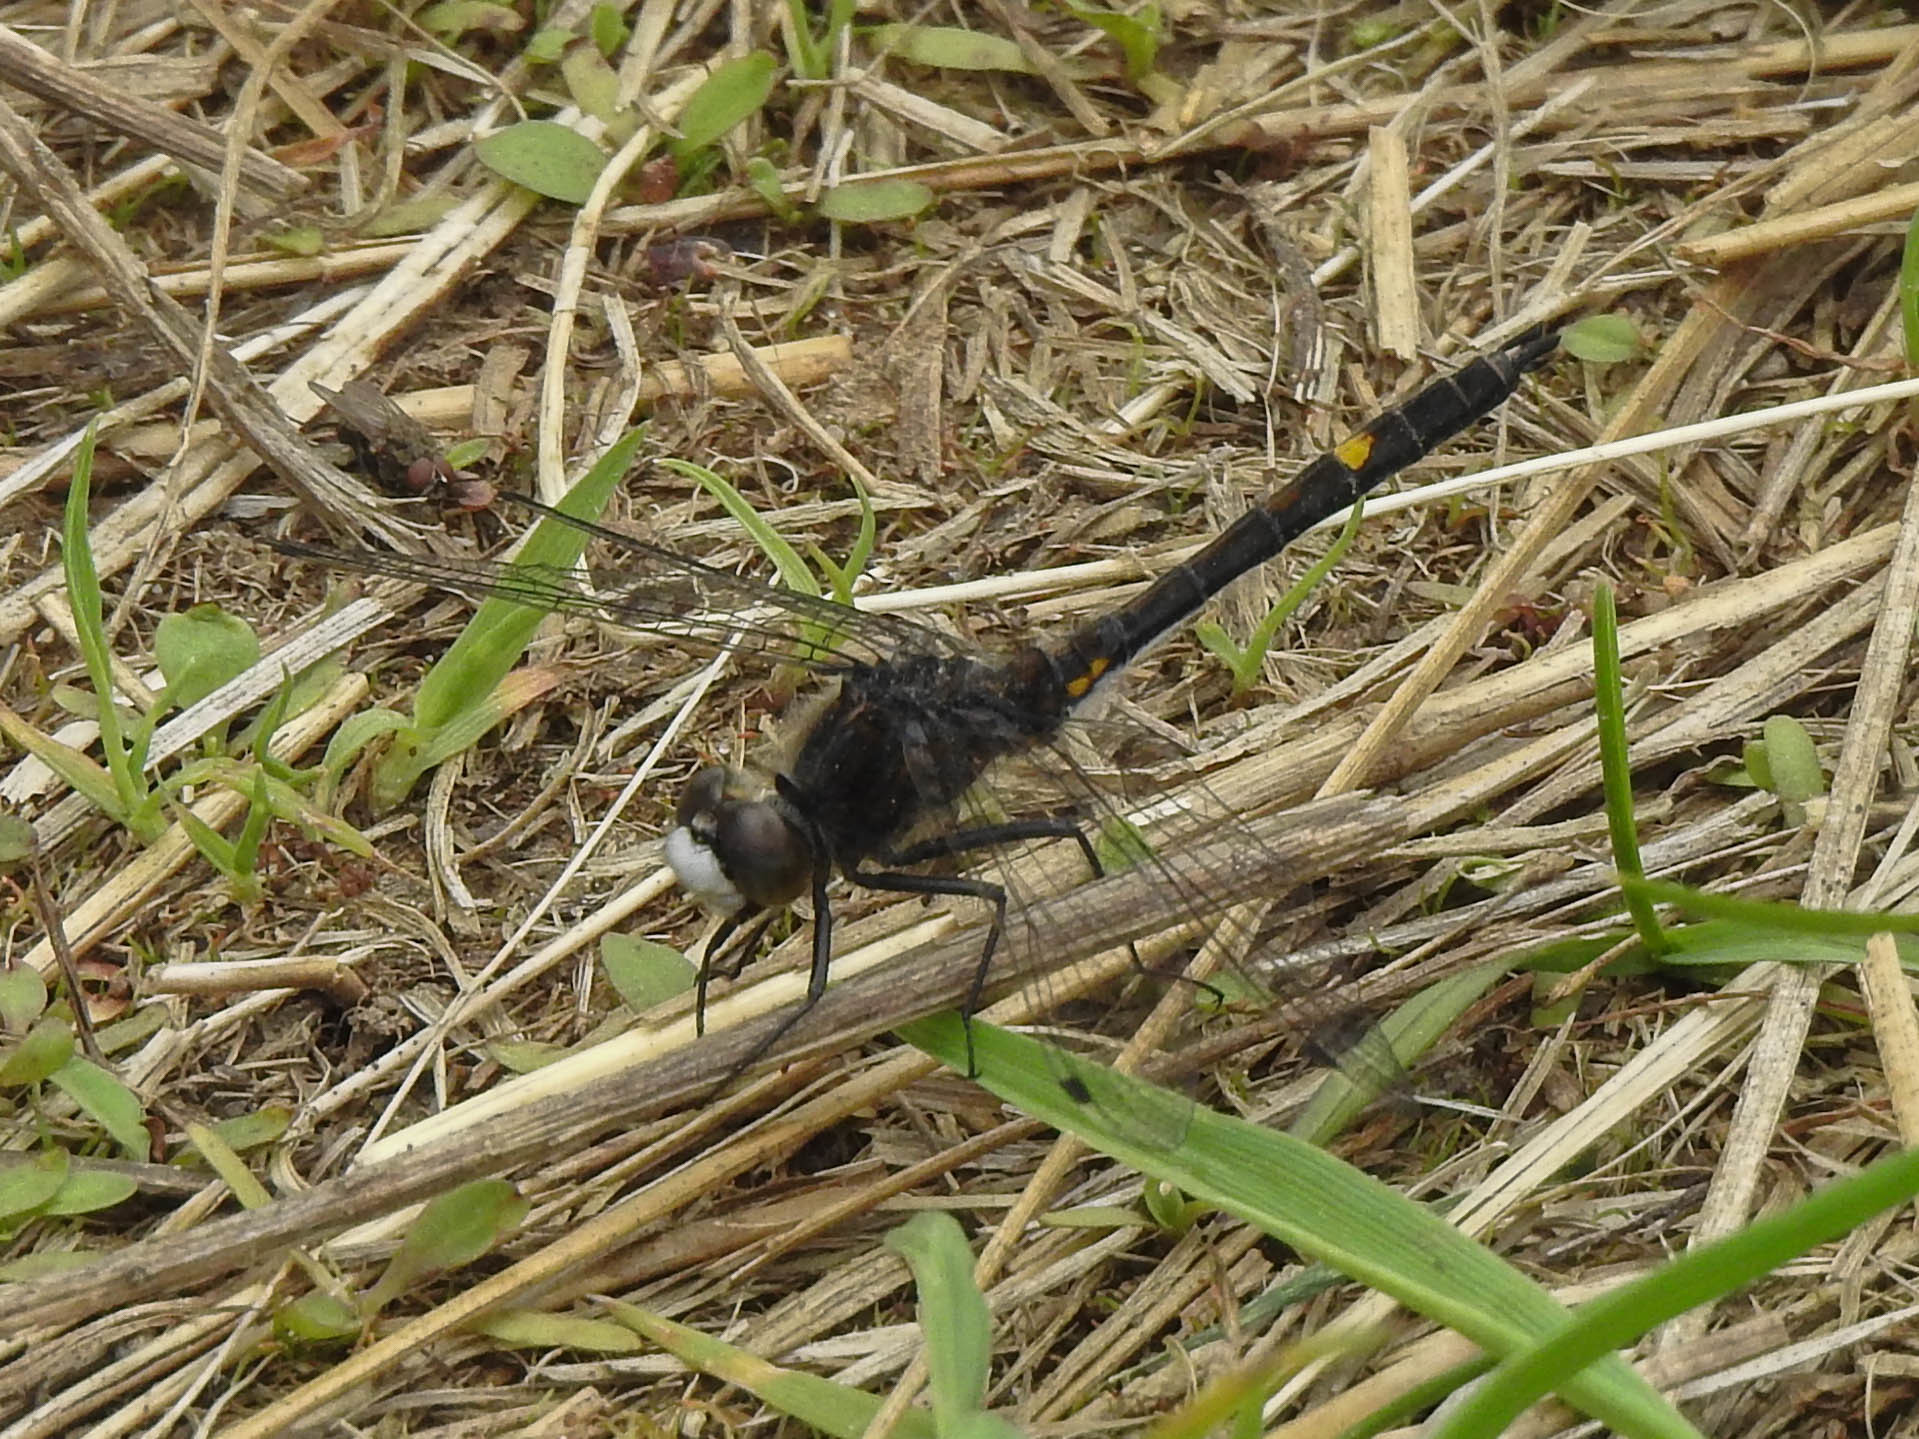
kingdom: Animalia
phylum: Arthropoda
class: Insecta
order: Odonata
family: Libellulidae
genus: Leucorrhinia
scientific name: Leucorrhinia intacta
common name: Dot-tailed whiteface
